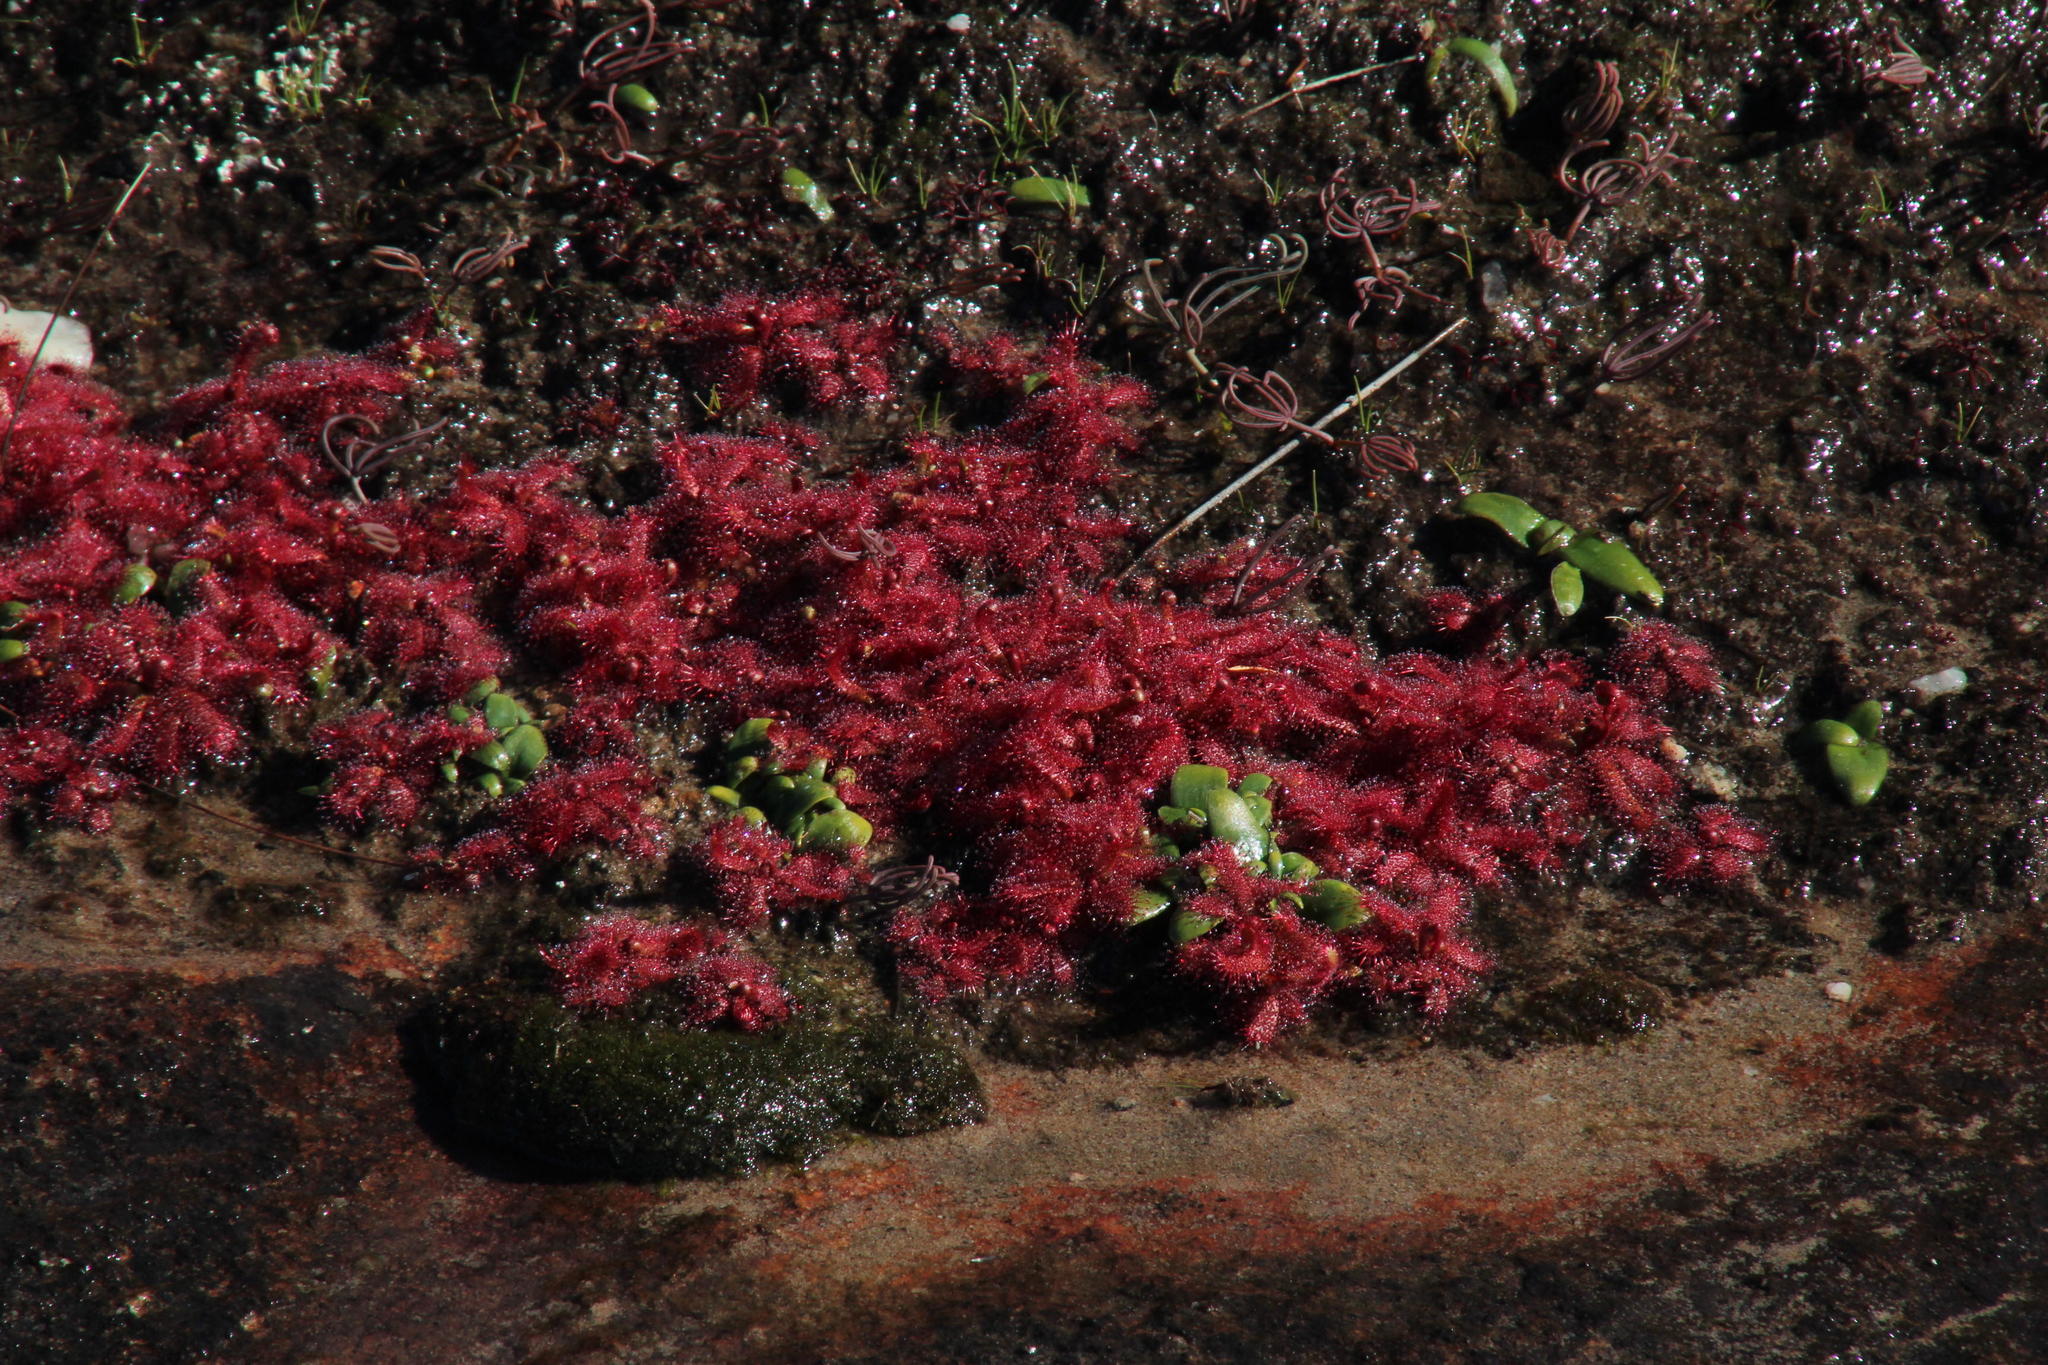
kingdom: Plantae
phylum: Tracheophyta
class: Magnoliopsida
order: Caryophyllales
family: Droseraceae
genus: Drosera
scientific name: Drosera alba
